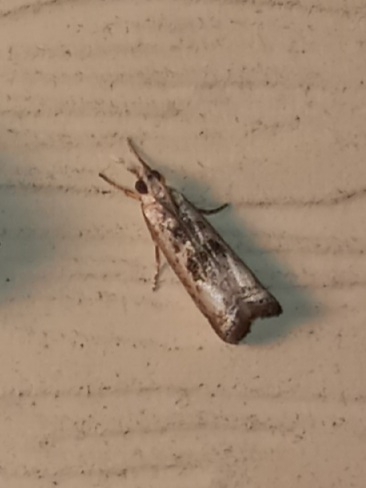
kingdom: Animalia
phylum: Arthropoda
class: Insecta
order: Lepidoptera
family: Crambidae
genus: Microcrambus
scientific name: Microcrambus elegans
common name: Elegant grass-veneer
